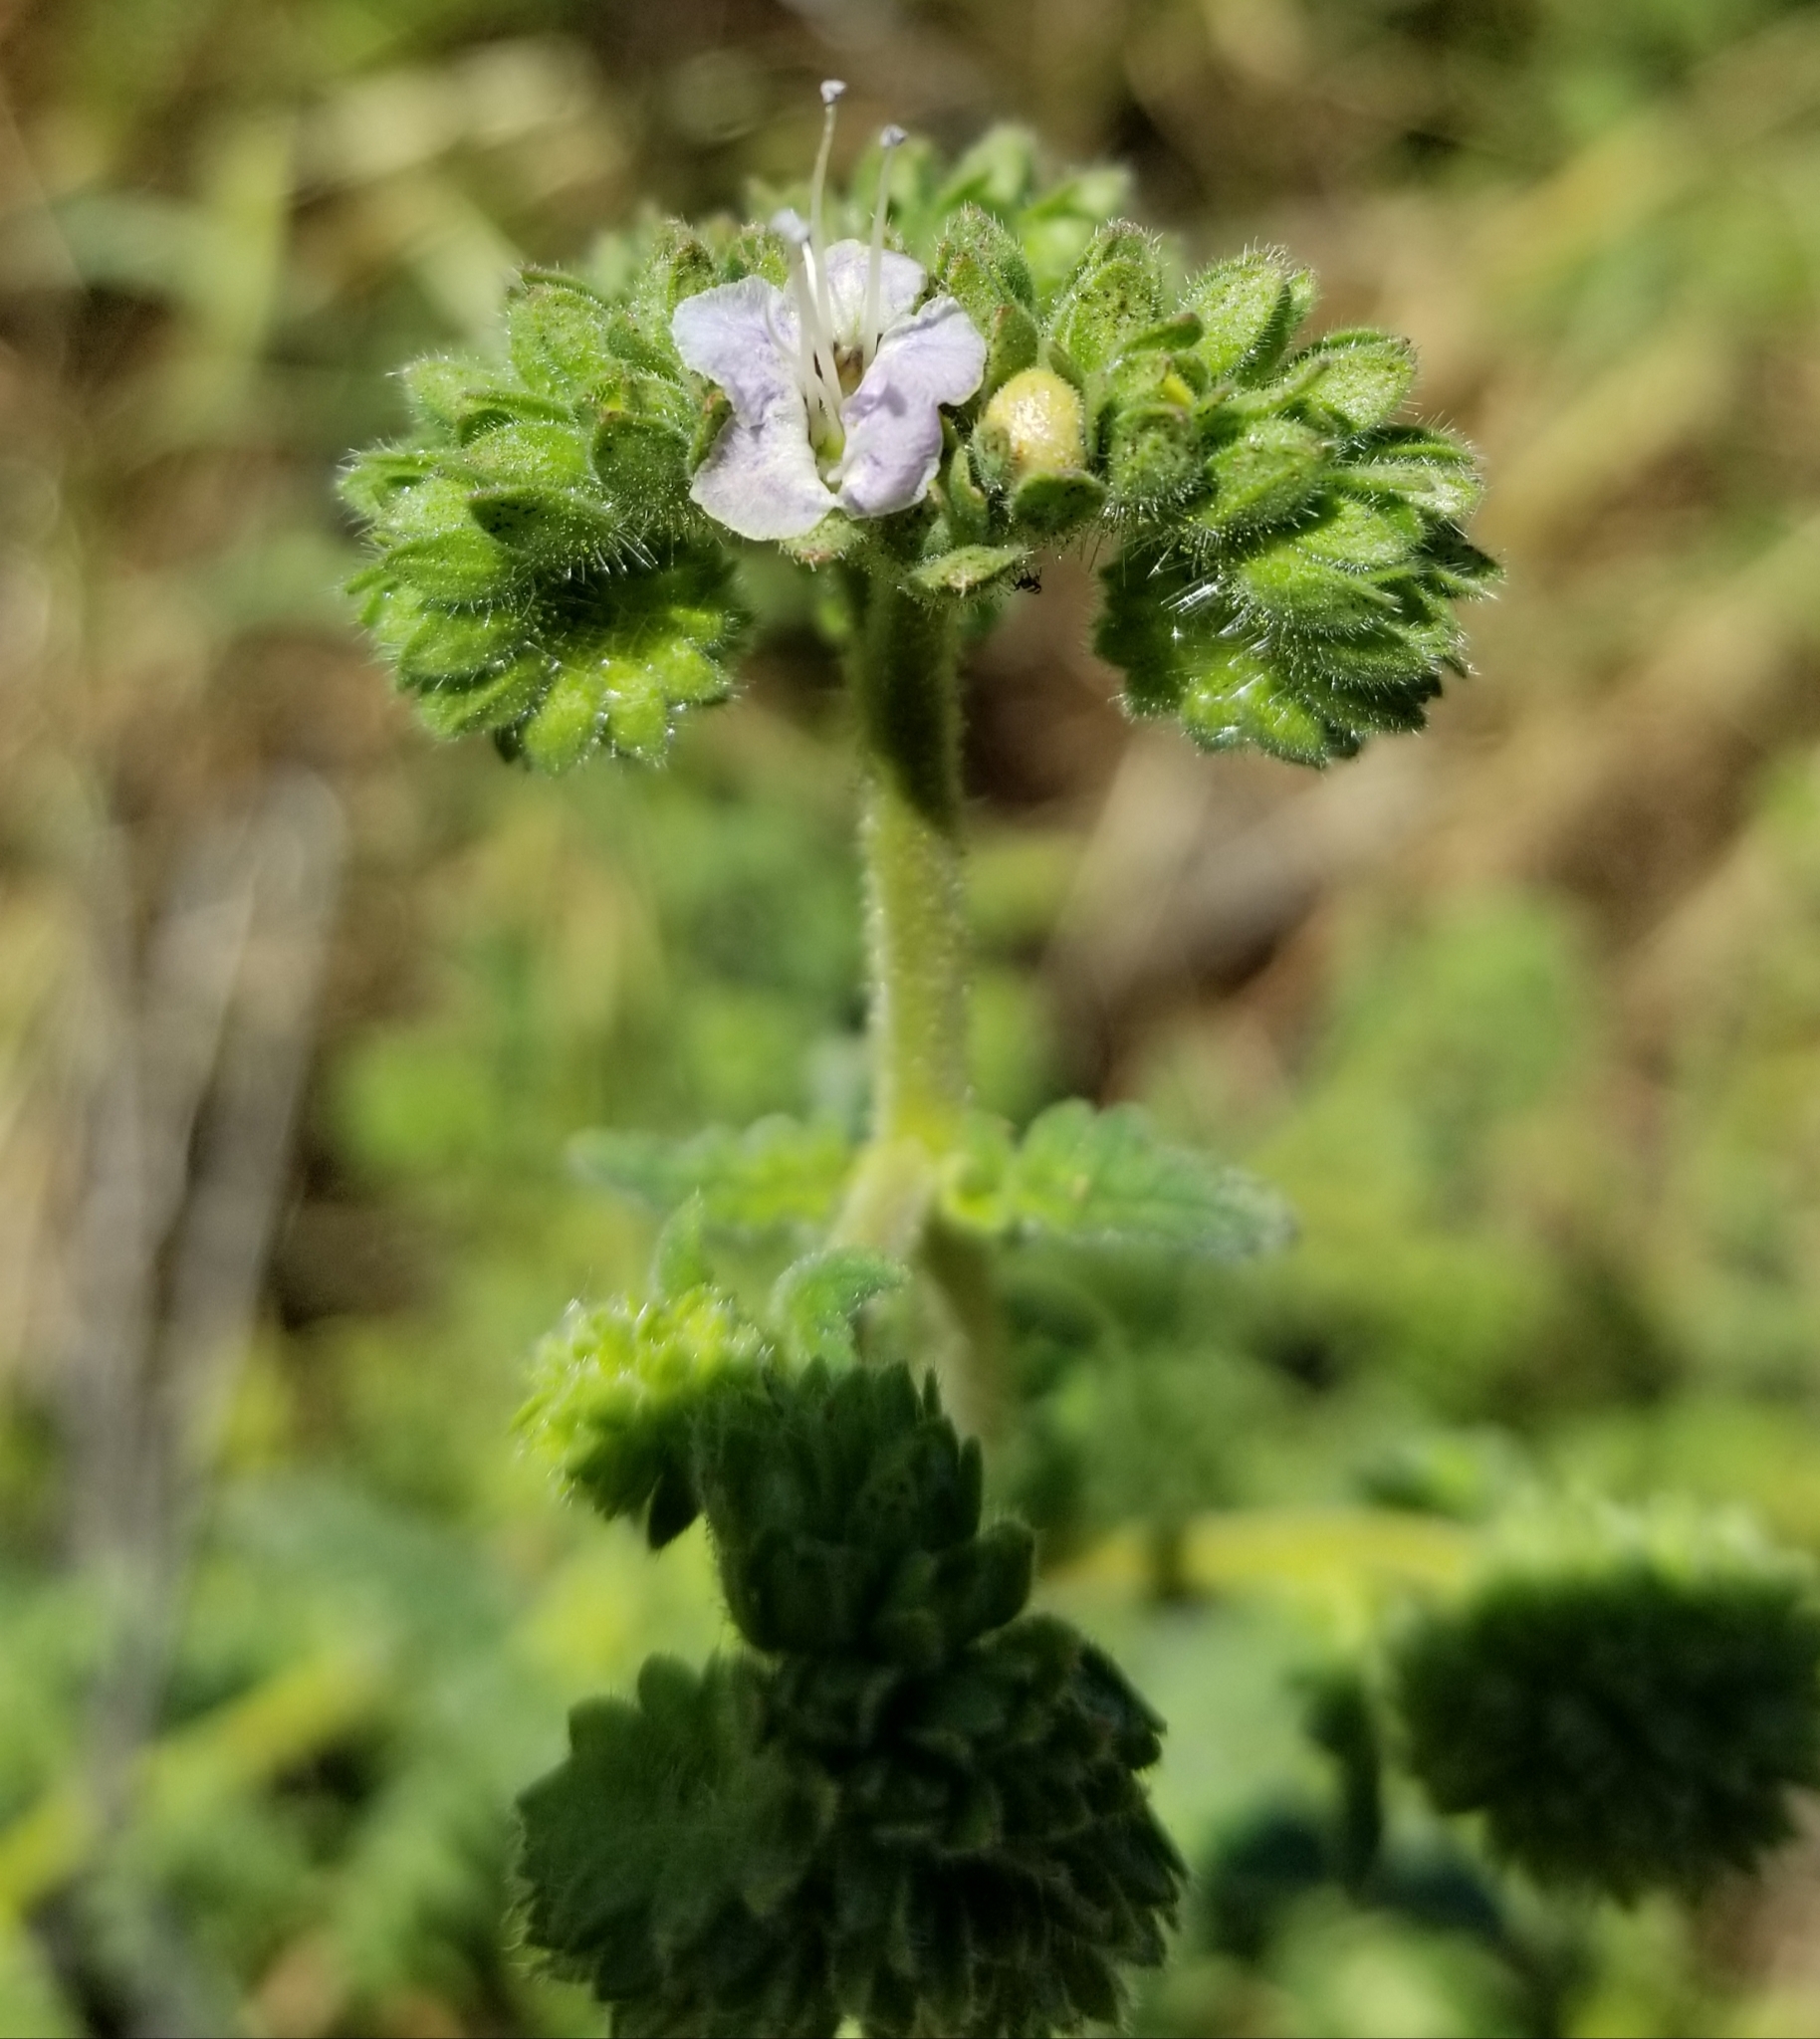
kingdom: Plantae
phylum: Tracheophyta
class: Magnoliopsida
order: Boraginales
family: Hydrophyllaceae
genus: Phacelia
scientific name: Phacelia ramosissima
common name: Branching phacelia
